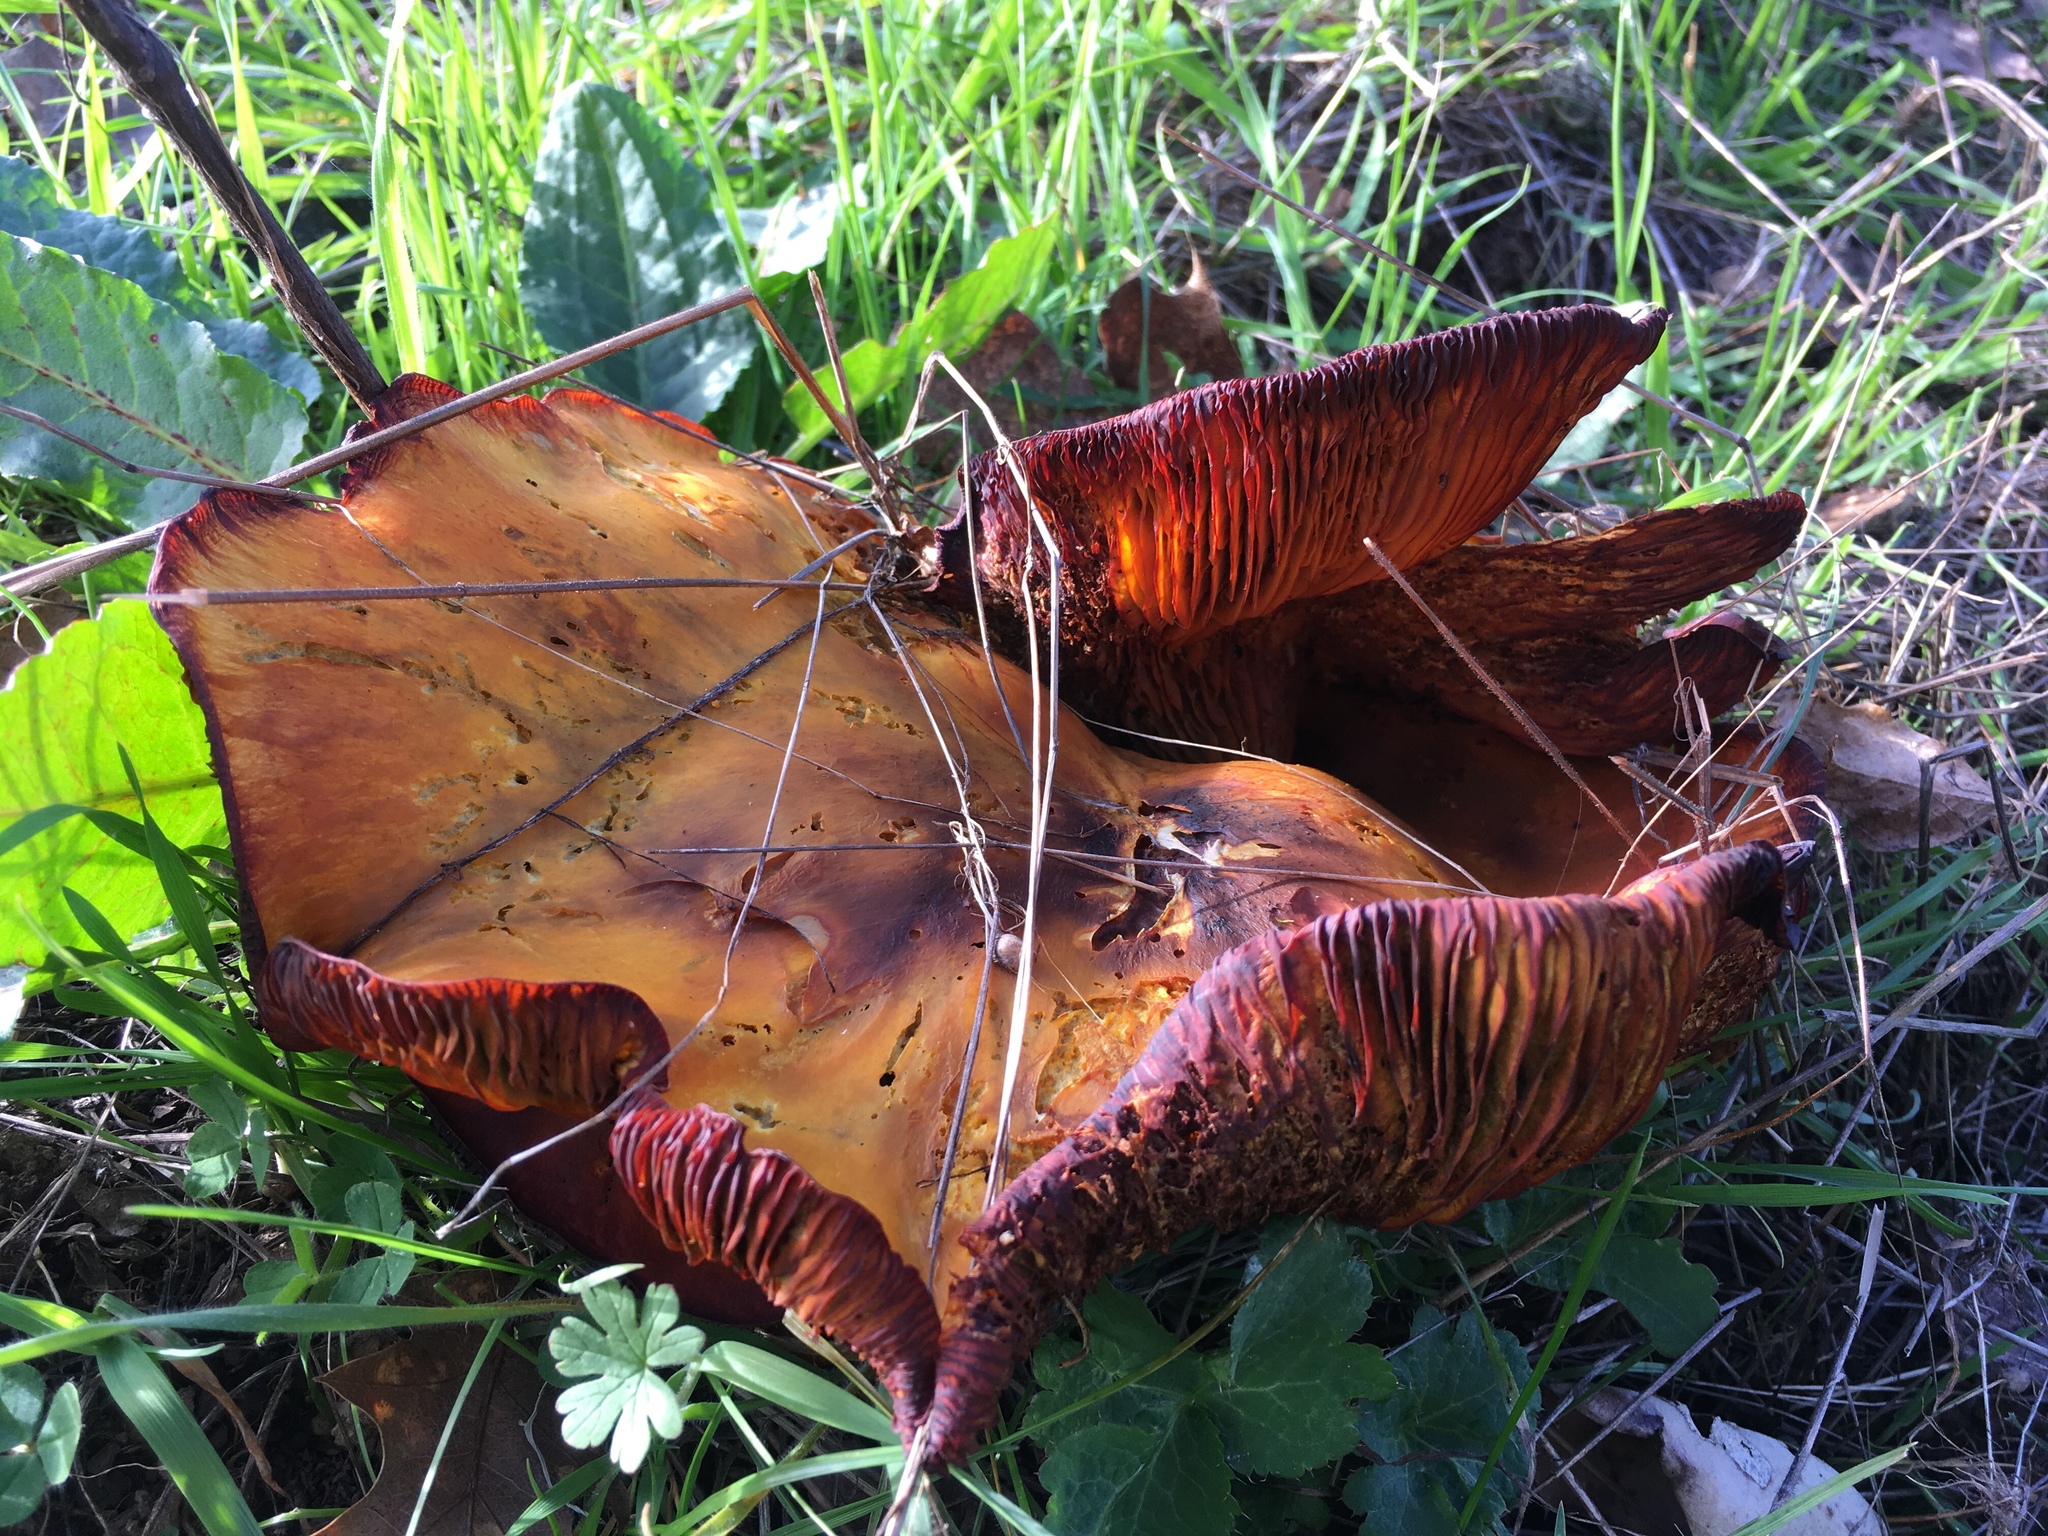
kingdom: Fungi
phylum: Basidiomycota
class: Agaricomycetes
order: Agaricales
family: Omphalotaceae
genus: Omphalotus
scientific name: Omphalotus olivascens
